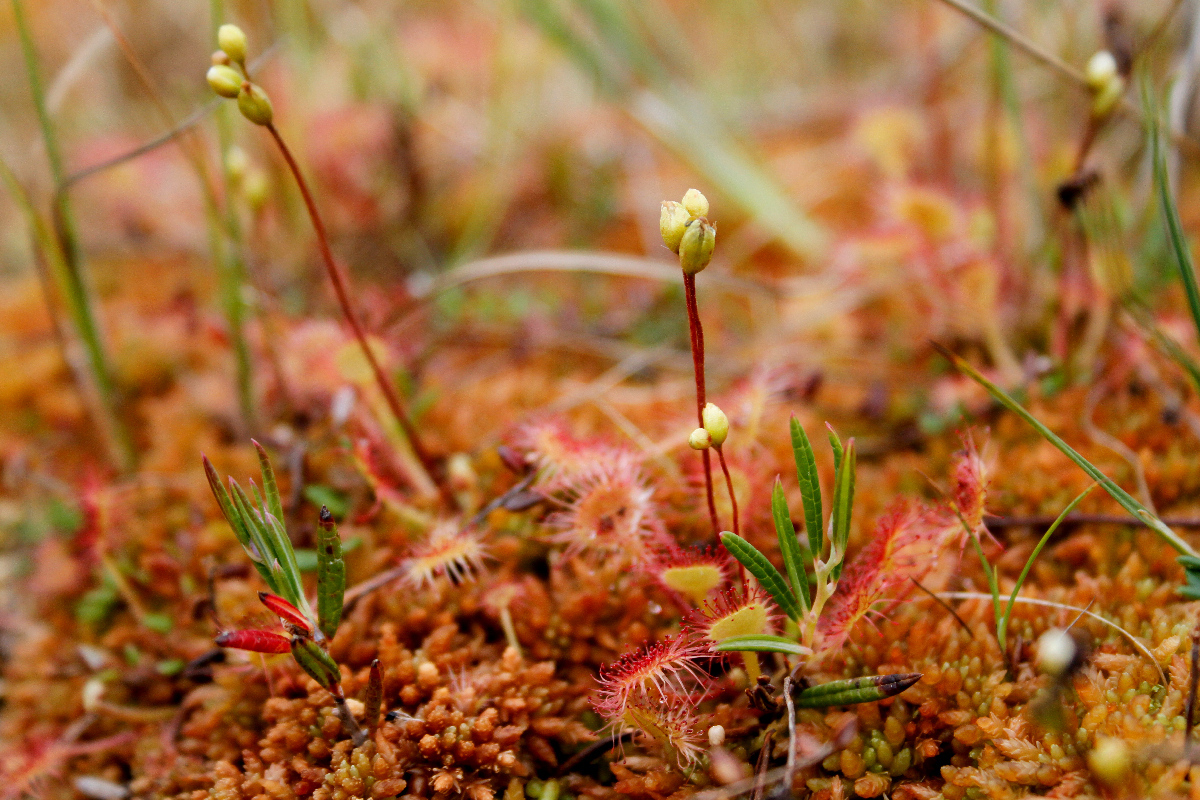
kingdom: Plantae
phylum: Tracheophyta
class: Magnoliopsida
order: Caryophyllales
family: Droseraceae
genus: Drosera
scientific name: Drosera rotundifolia
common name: Round-leaved sundew
